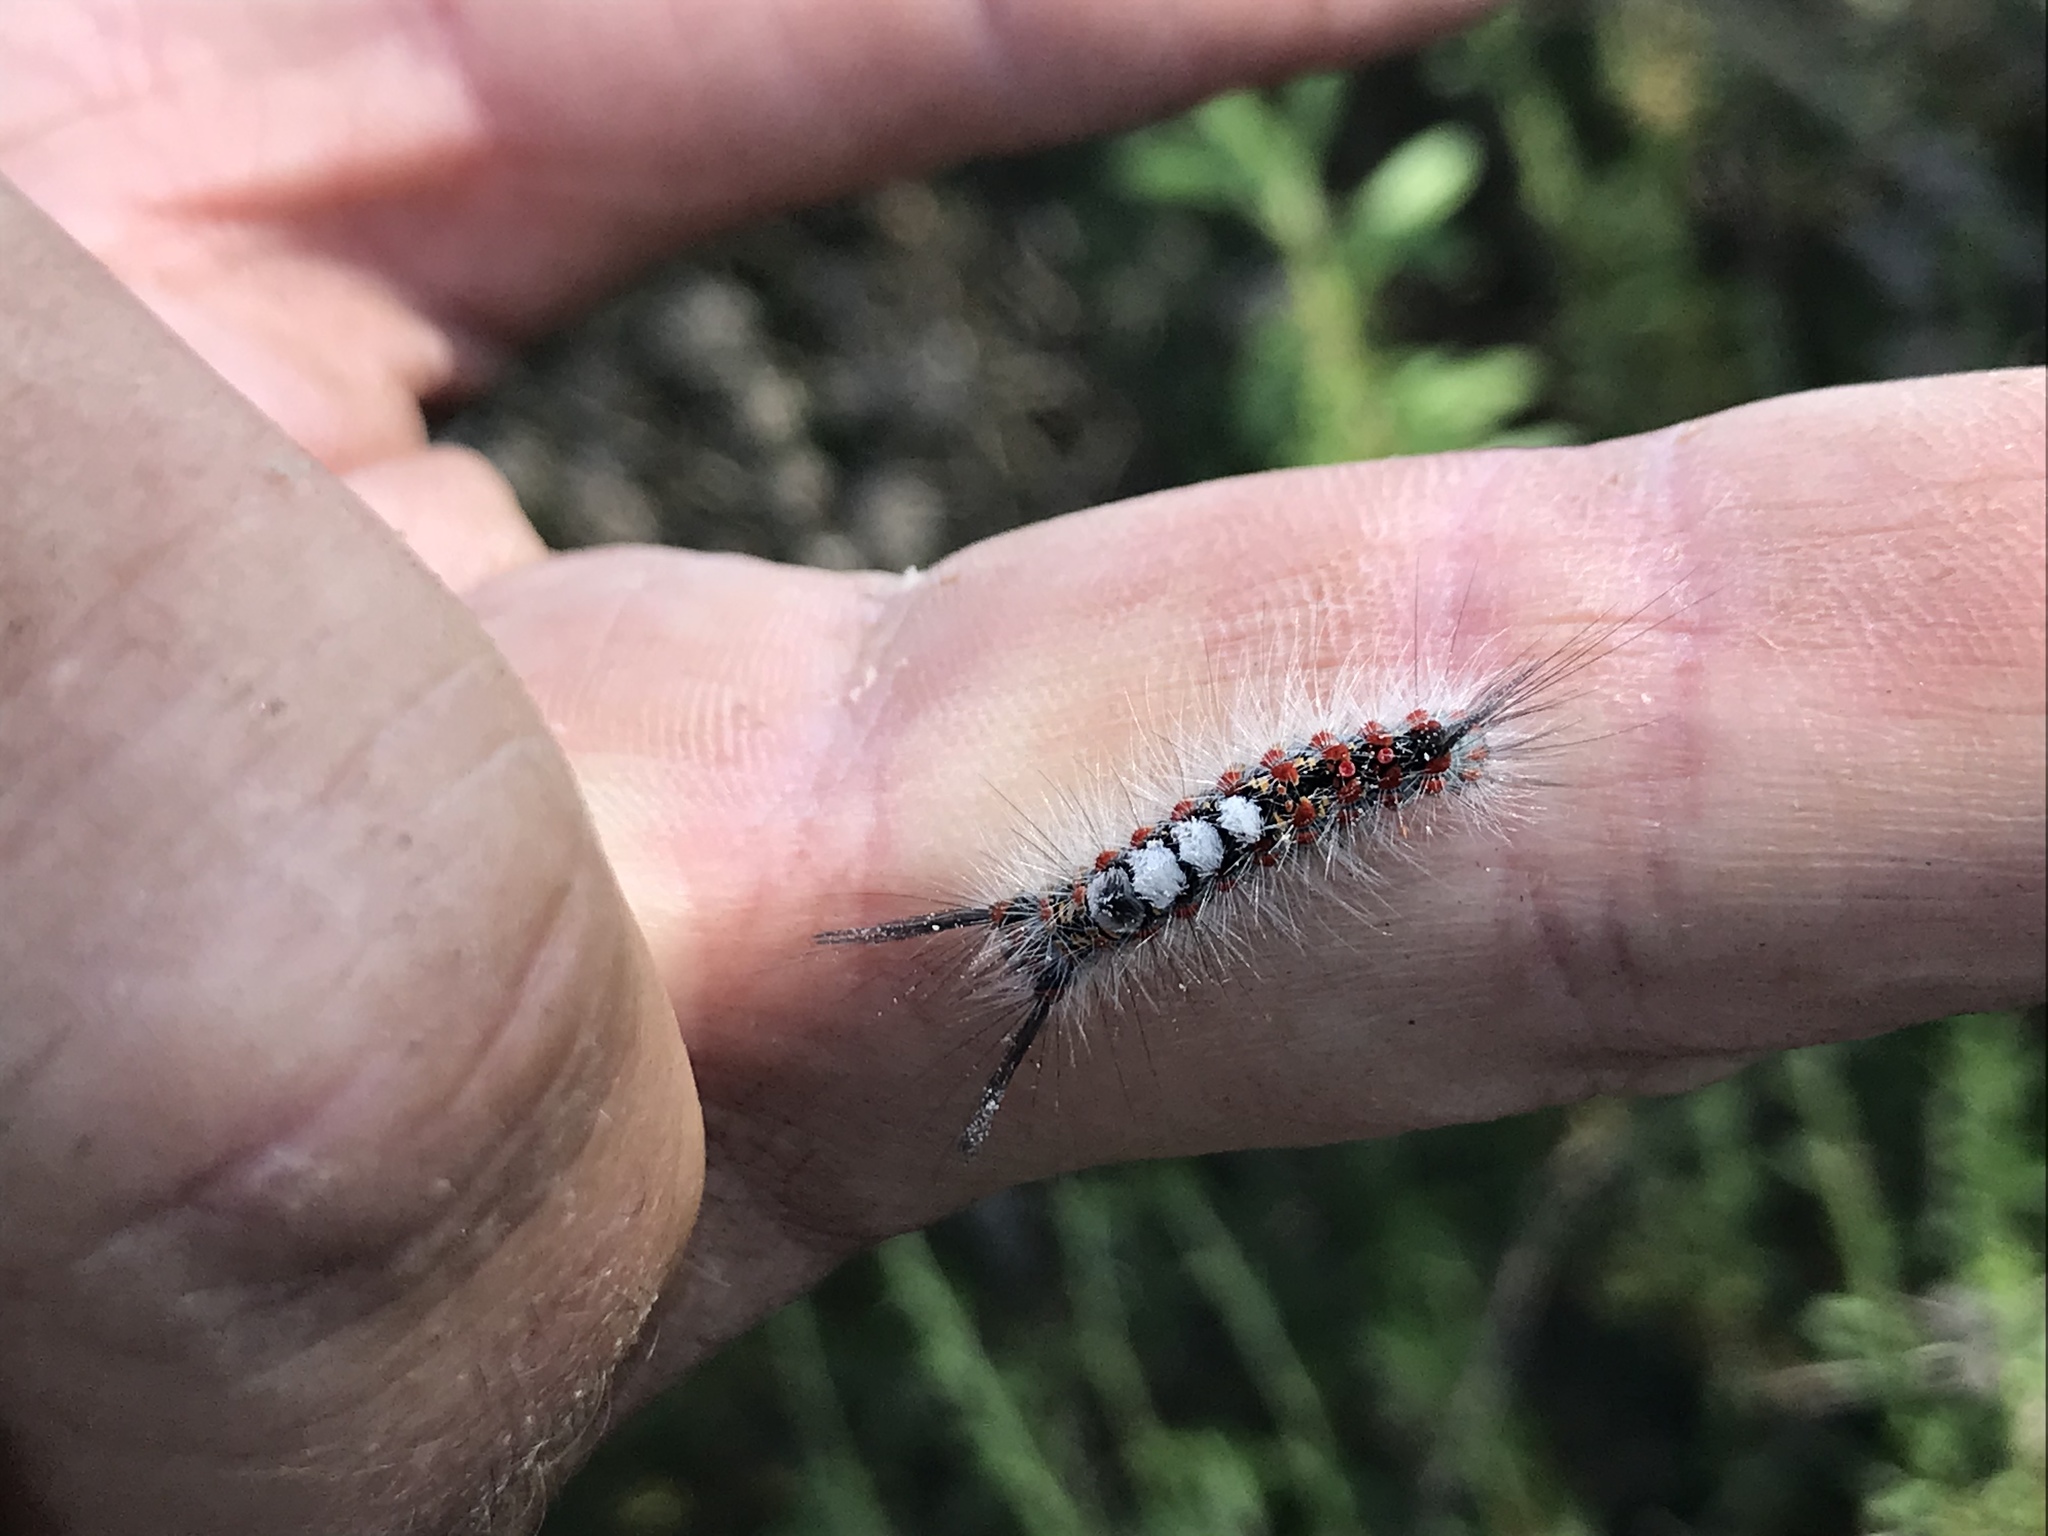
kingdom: Animalia
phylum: Arthropoda
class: Insecta
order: Lepidoptera
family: Erebidae
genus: Orgyia
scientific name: Orgyia vetusta
